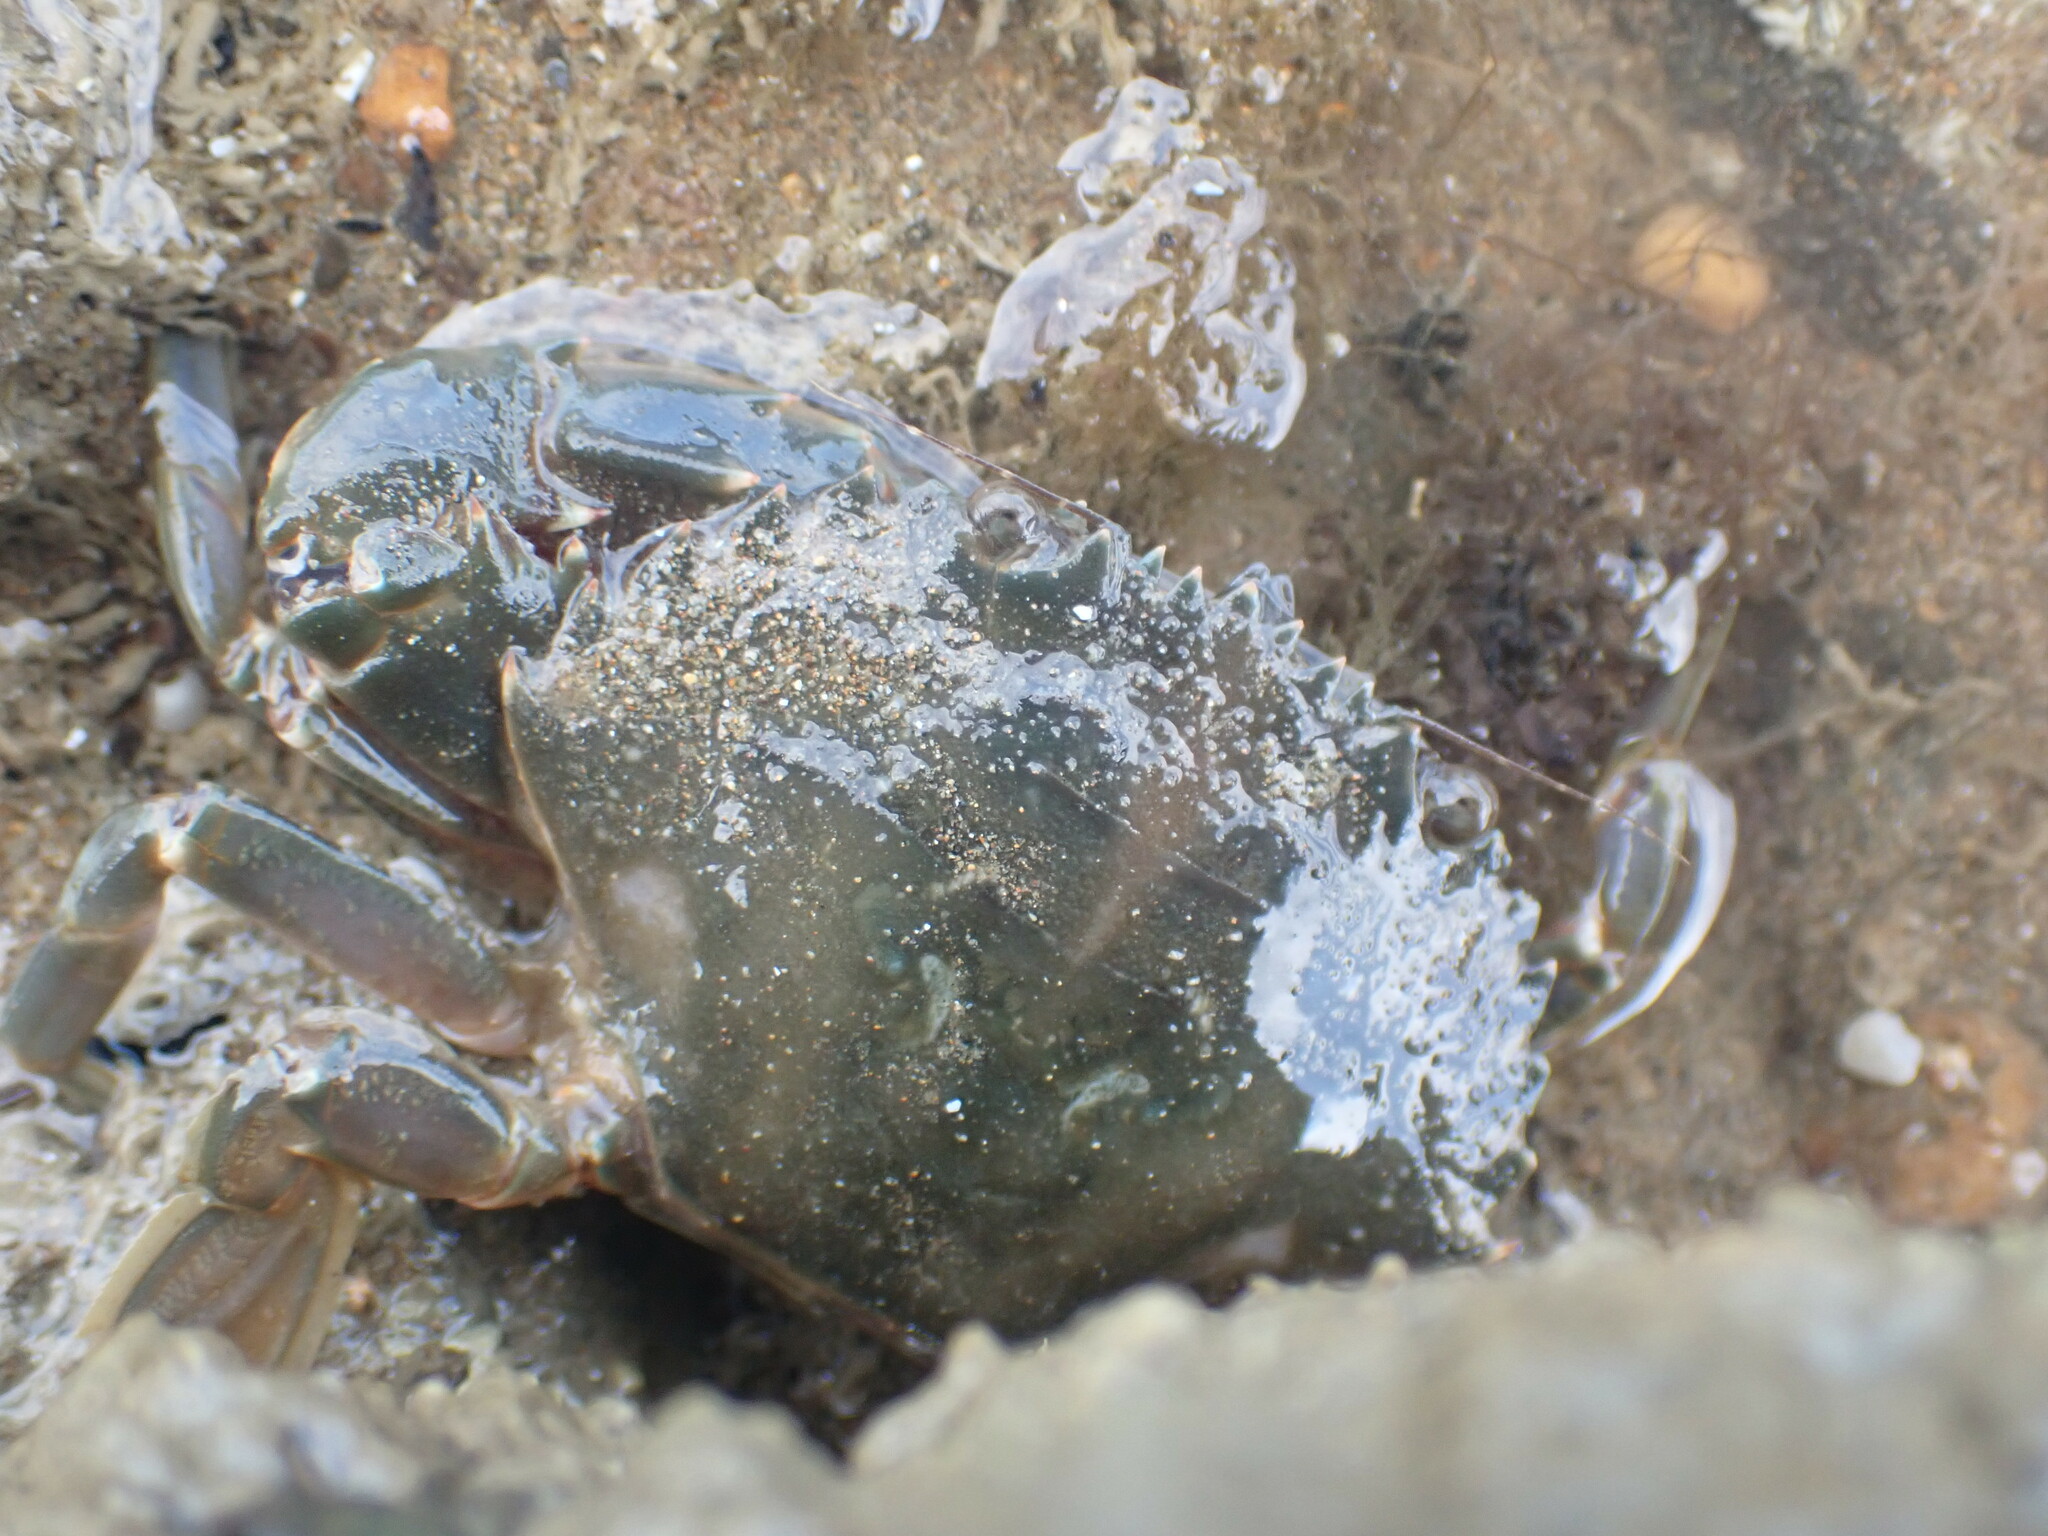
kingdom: Animalia
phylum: Arthropoda
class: Malacostraca
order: Decapoda
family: Portunidae
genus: Charybdis
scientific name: Charybdis japonica
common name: Asian paddle crab
